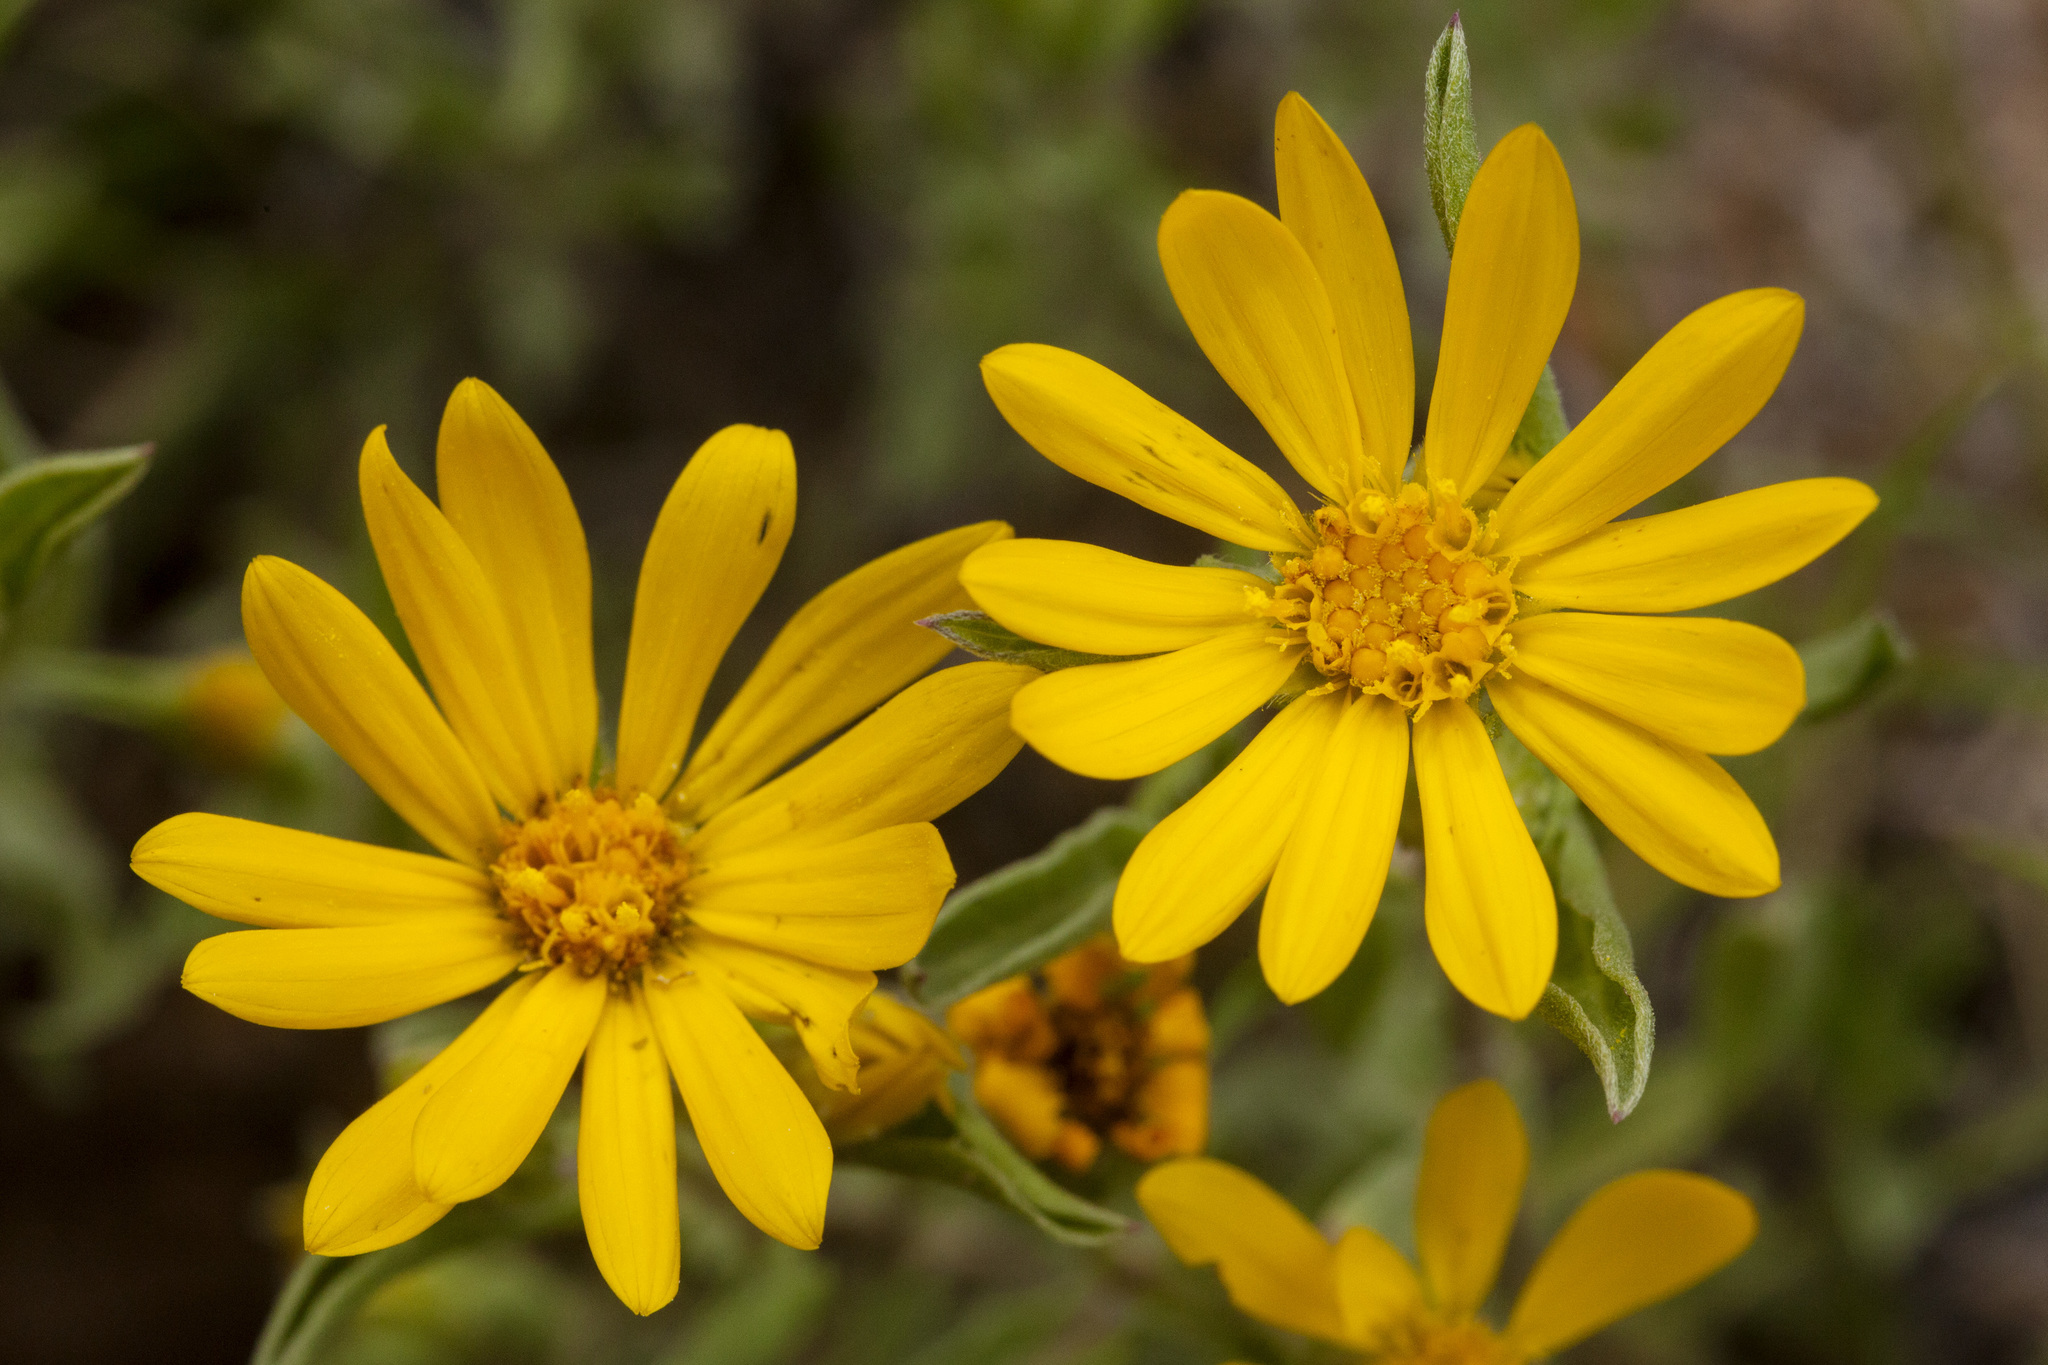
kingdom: Plantae
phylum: Tracheophyta
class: Magnoliopsida
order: Asterales
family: Asteraceae
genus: Heterotheca
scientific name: Heterotheca nitidula
